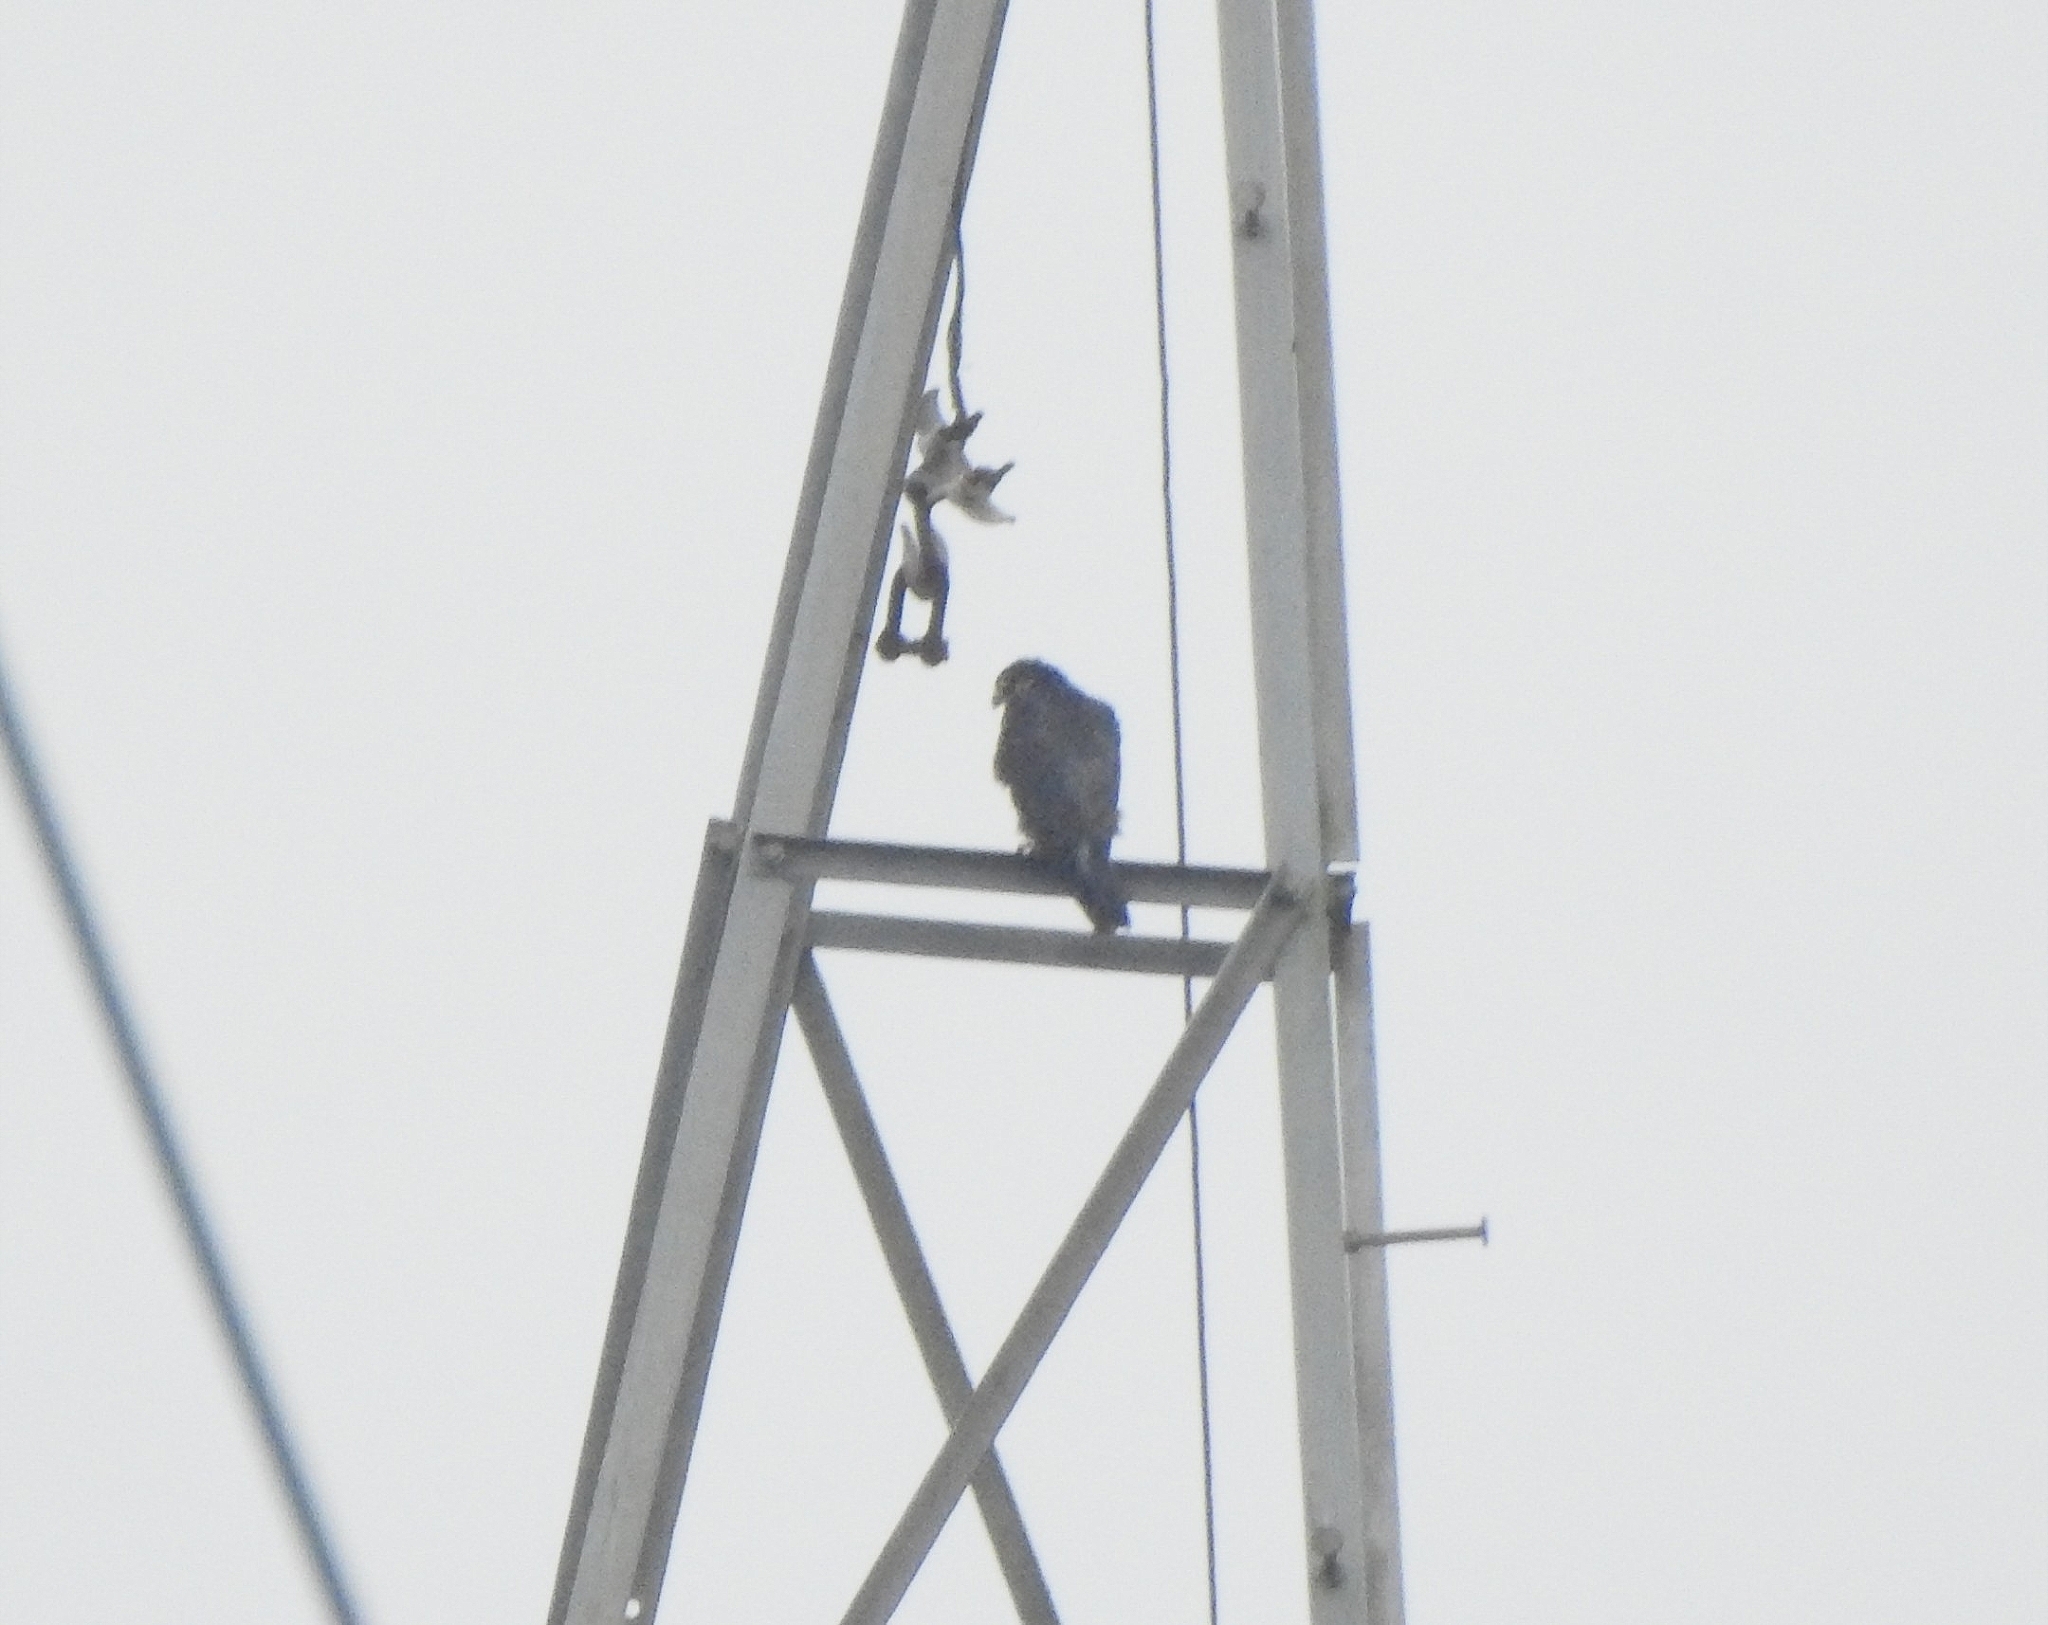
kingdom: Animalia
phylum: Chordata
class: Aves
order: Falconiformes
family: Falconidae
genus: Falco
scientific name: Falco peregrinus
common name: Peregrine falcon
